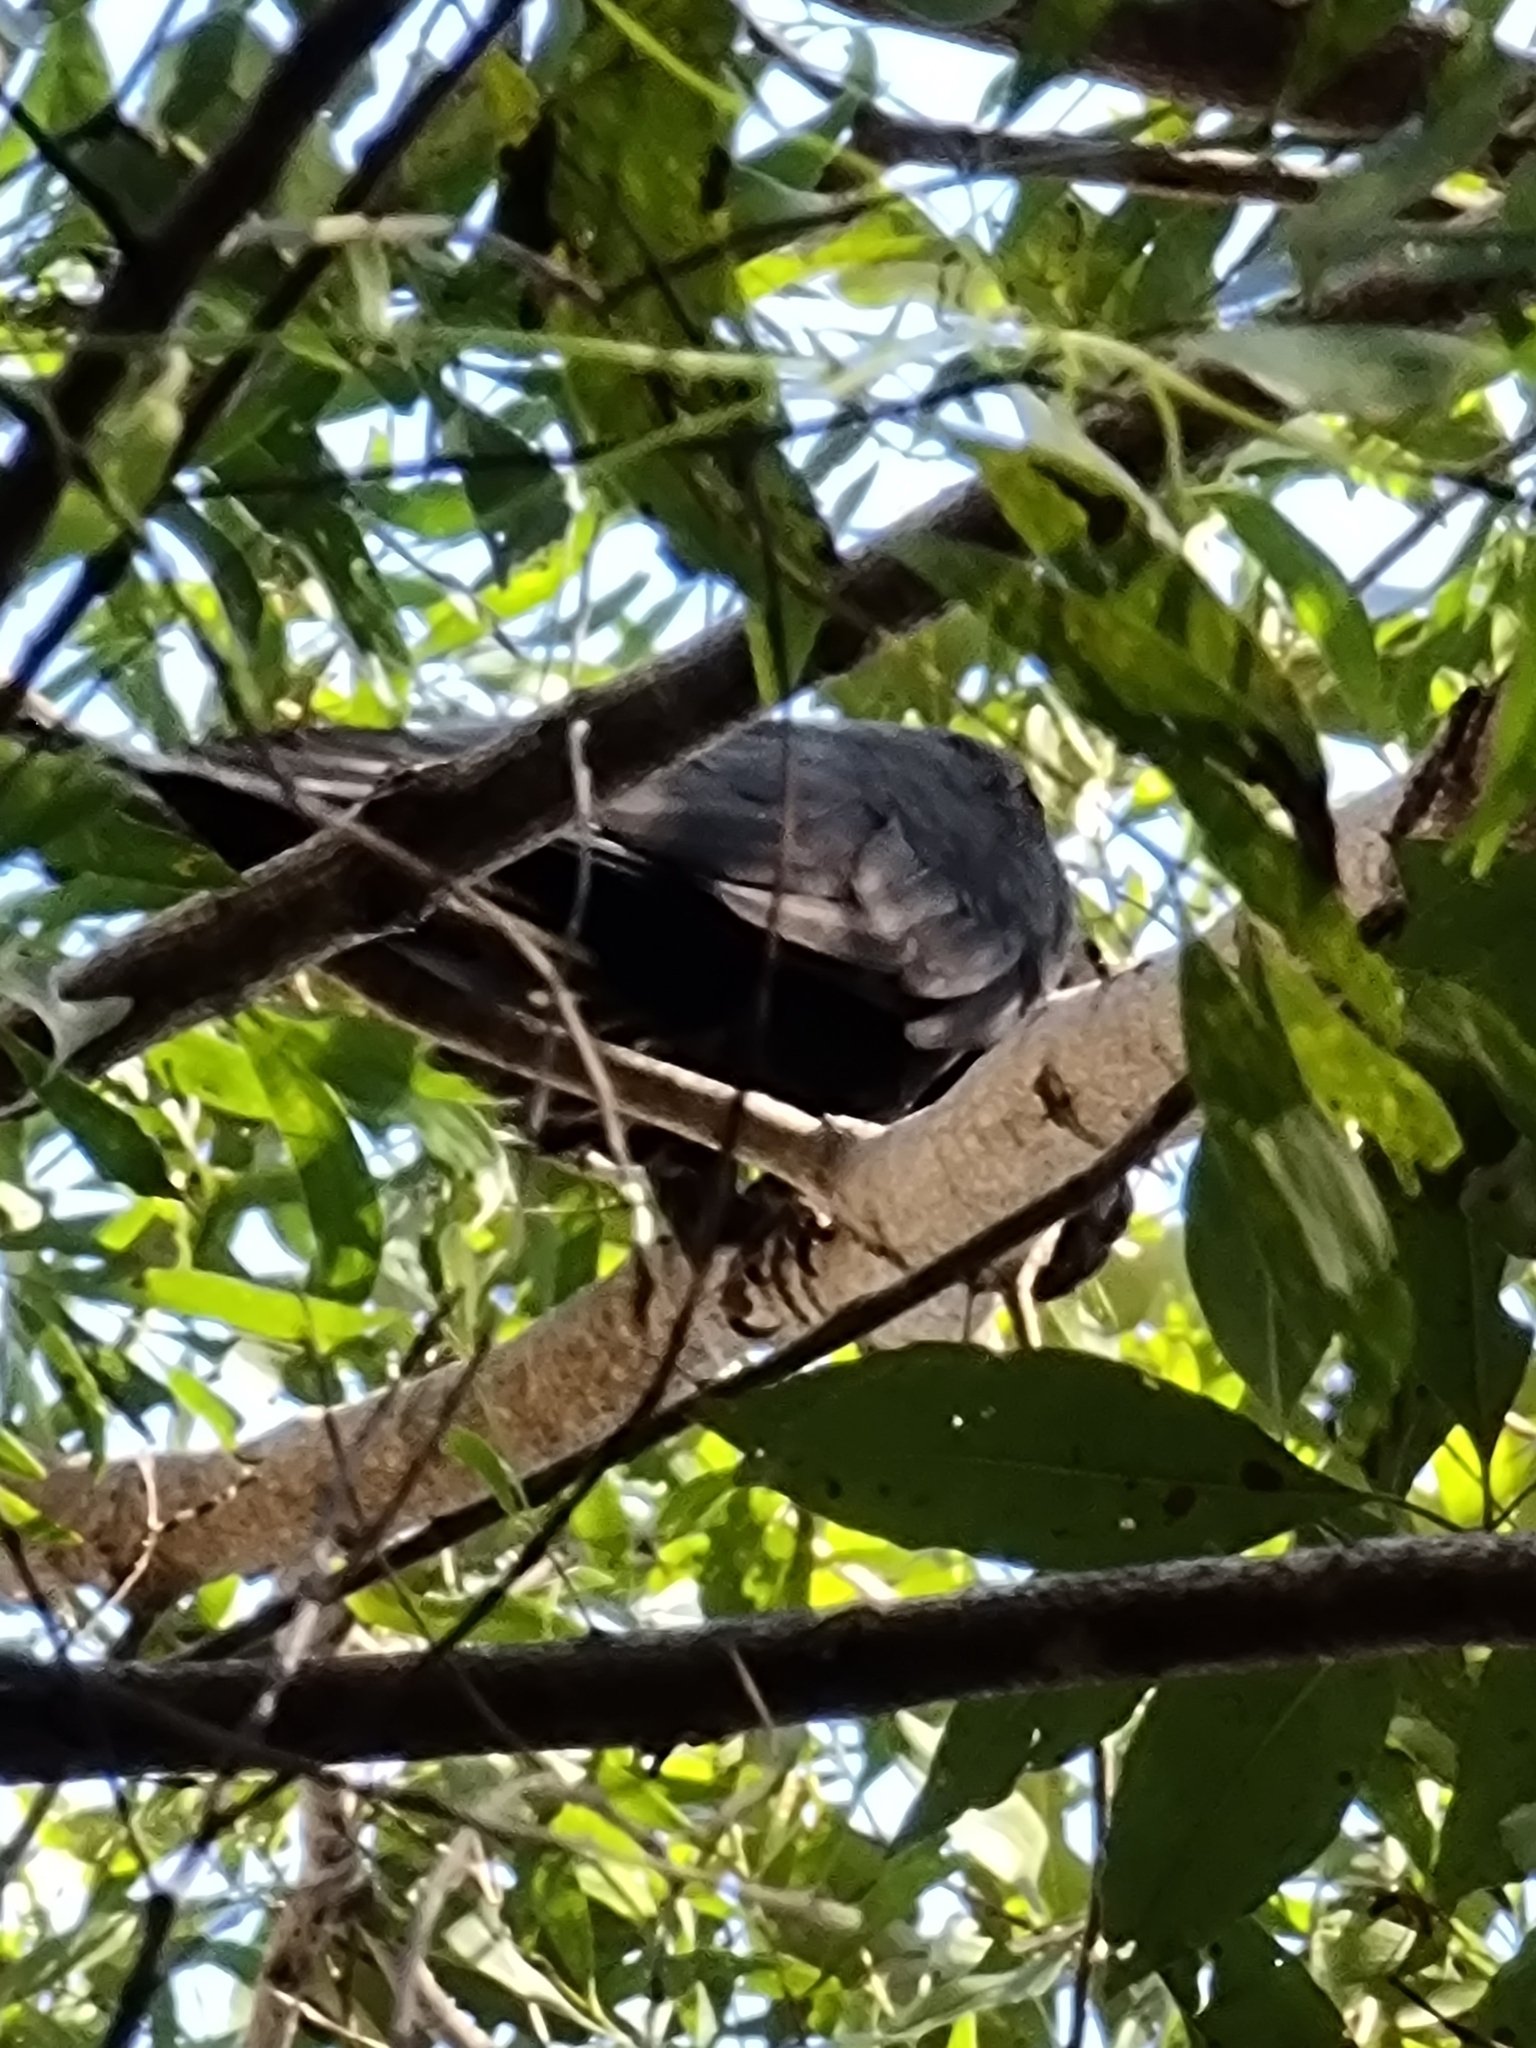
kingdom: Animalia
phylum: Chordata
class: Aves
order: Psittaciformes
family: Cacatuidae
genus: Zanda
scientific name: Zanda funerea
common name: Yellow-tailed black-cockatoo
